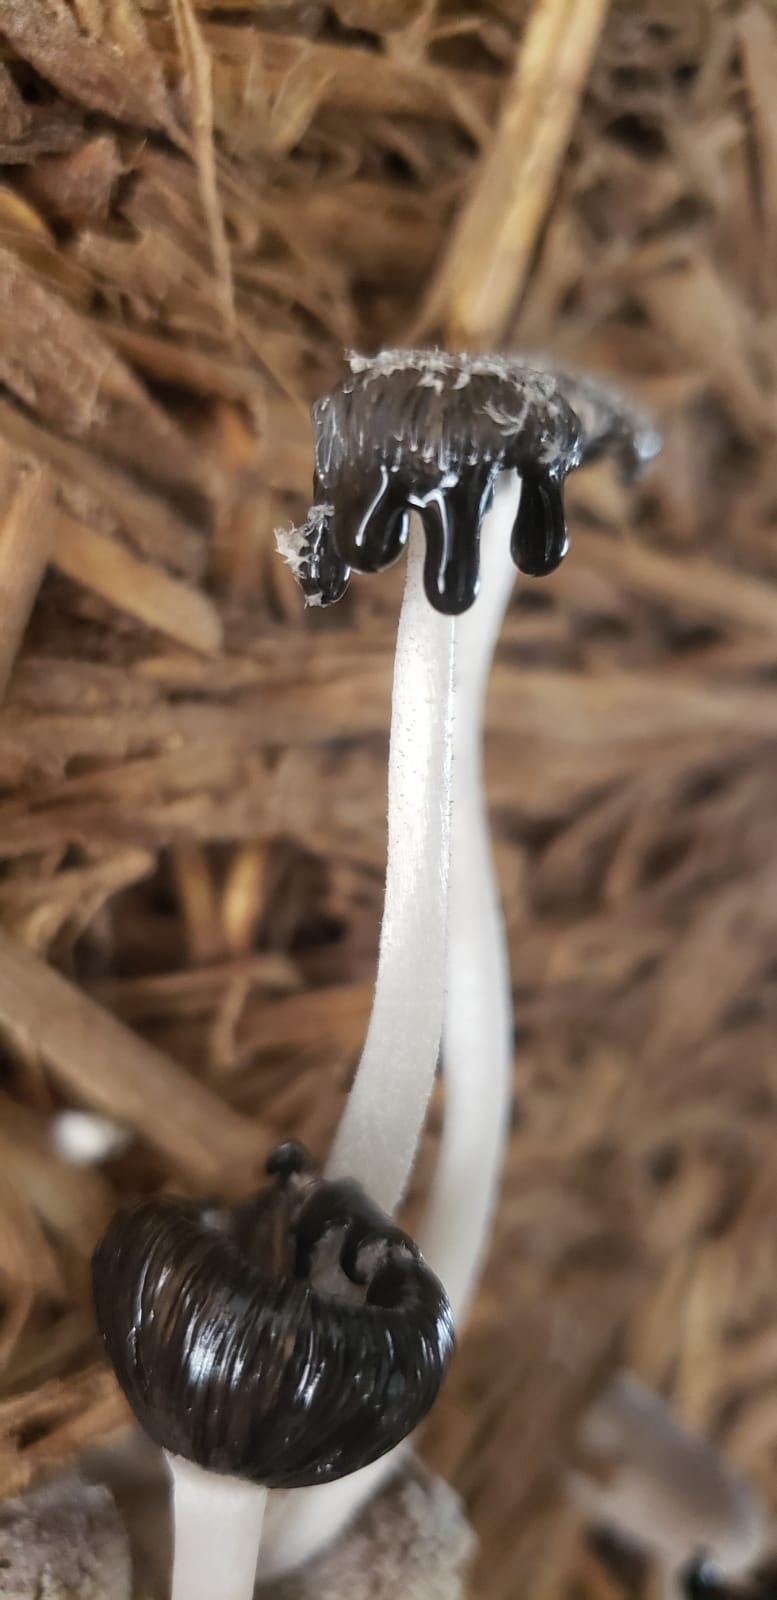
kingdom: Fungi
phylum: Basidiomycota
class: Agaricomycetes
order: Agaricales
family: Psathyrellaceae
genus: Coprinopsis
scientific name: Coprinopsis lagopus
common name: Hare'sfoot inkcap
